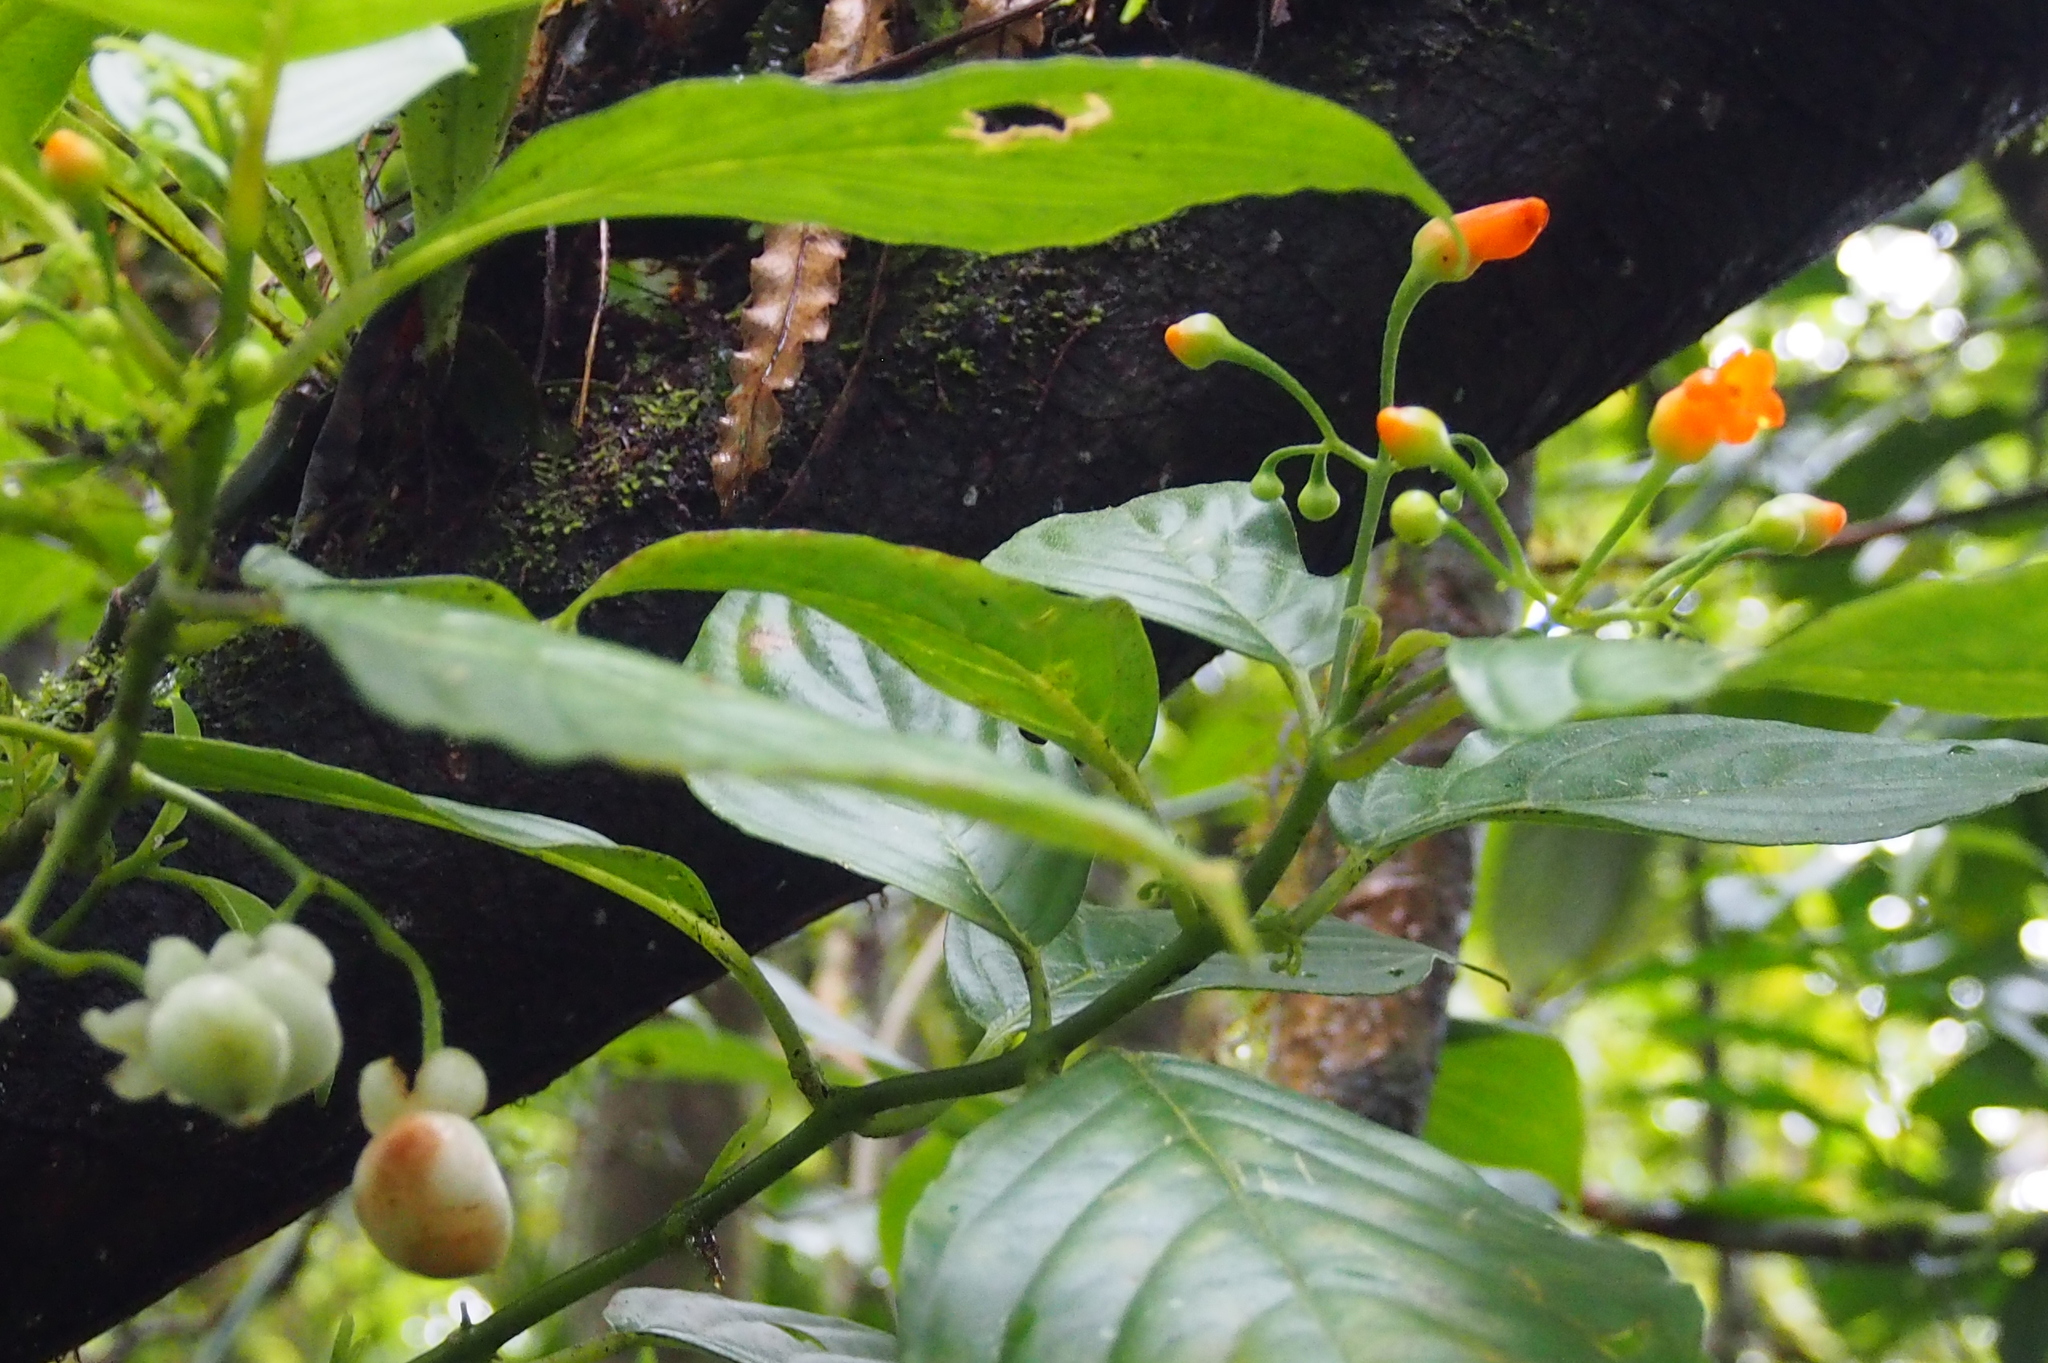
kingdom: Plantae
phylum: Tracheophyta
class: Magnoliopsida
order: Lamiales
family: Gesneriaceae
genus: Besleria
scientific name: Besleria triflora
